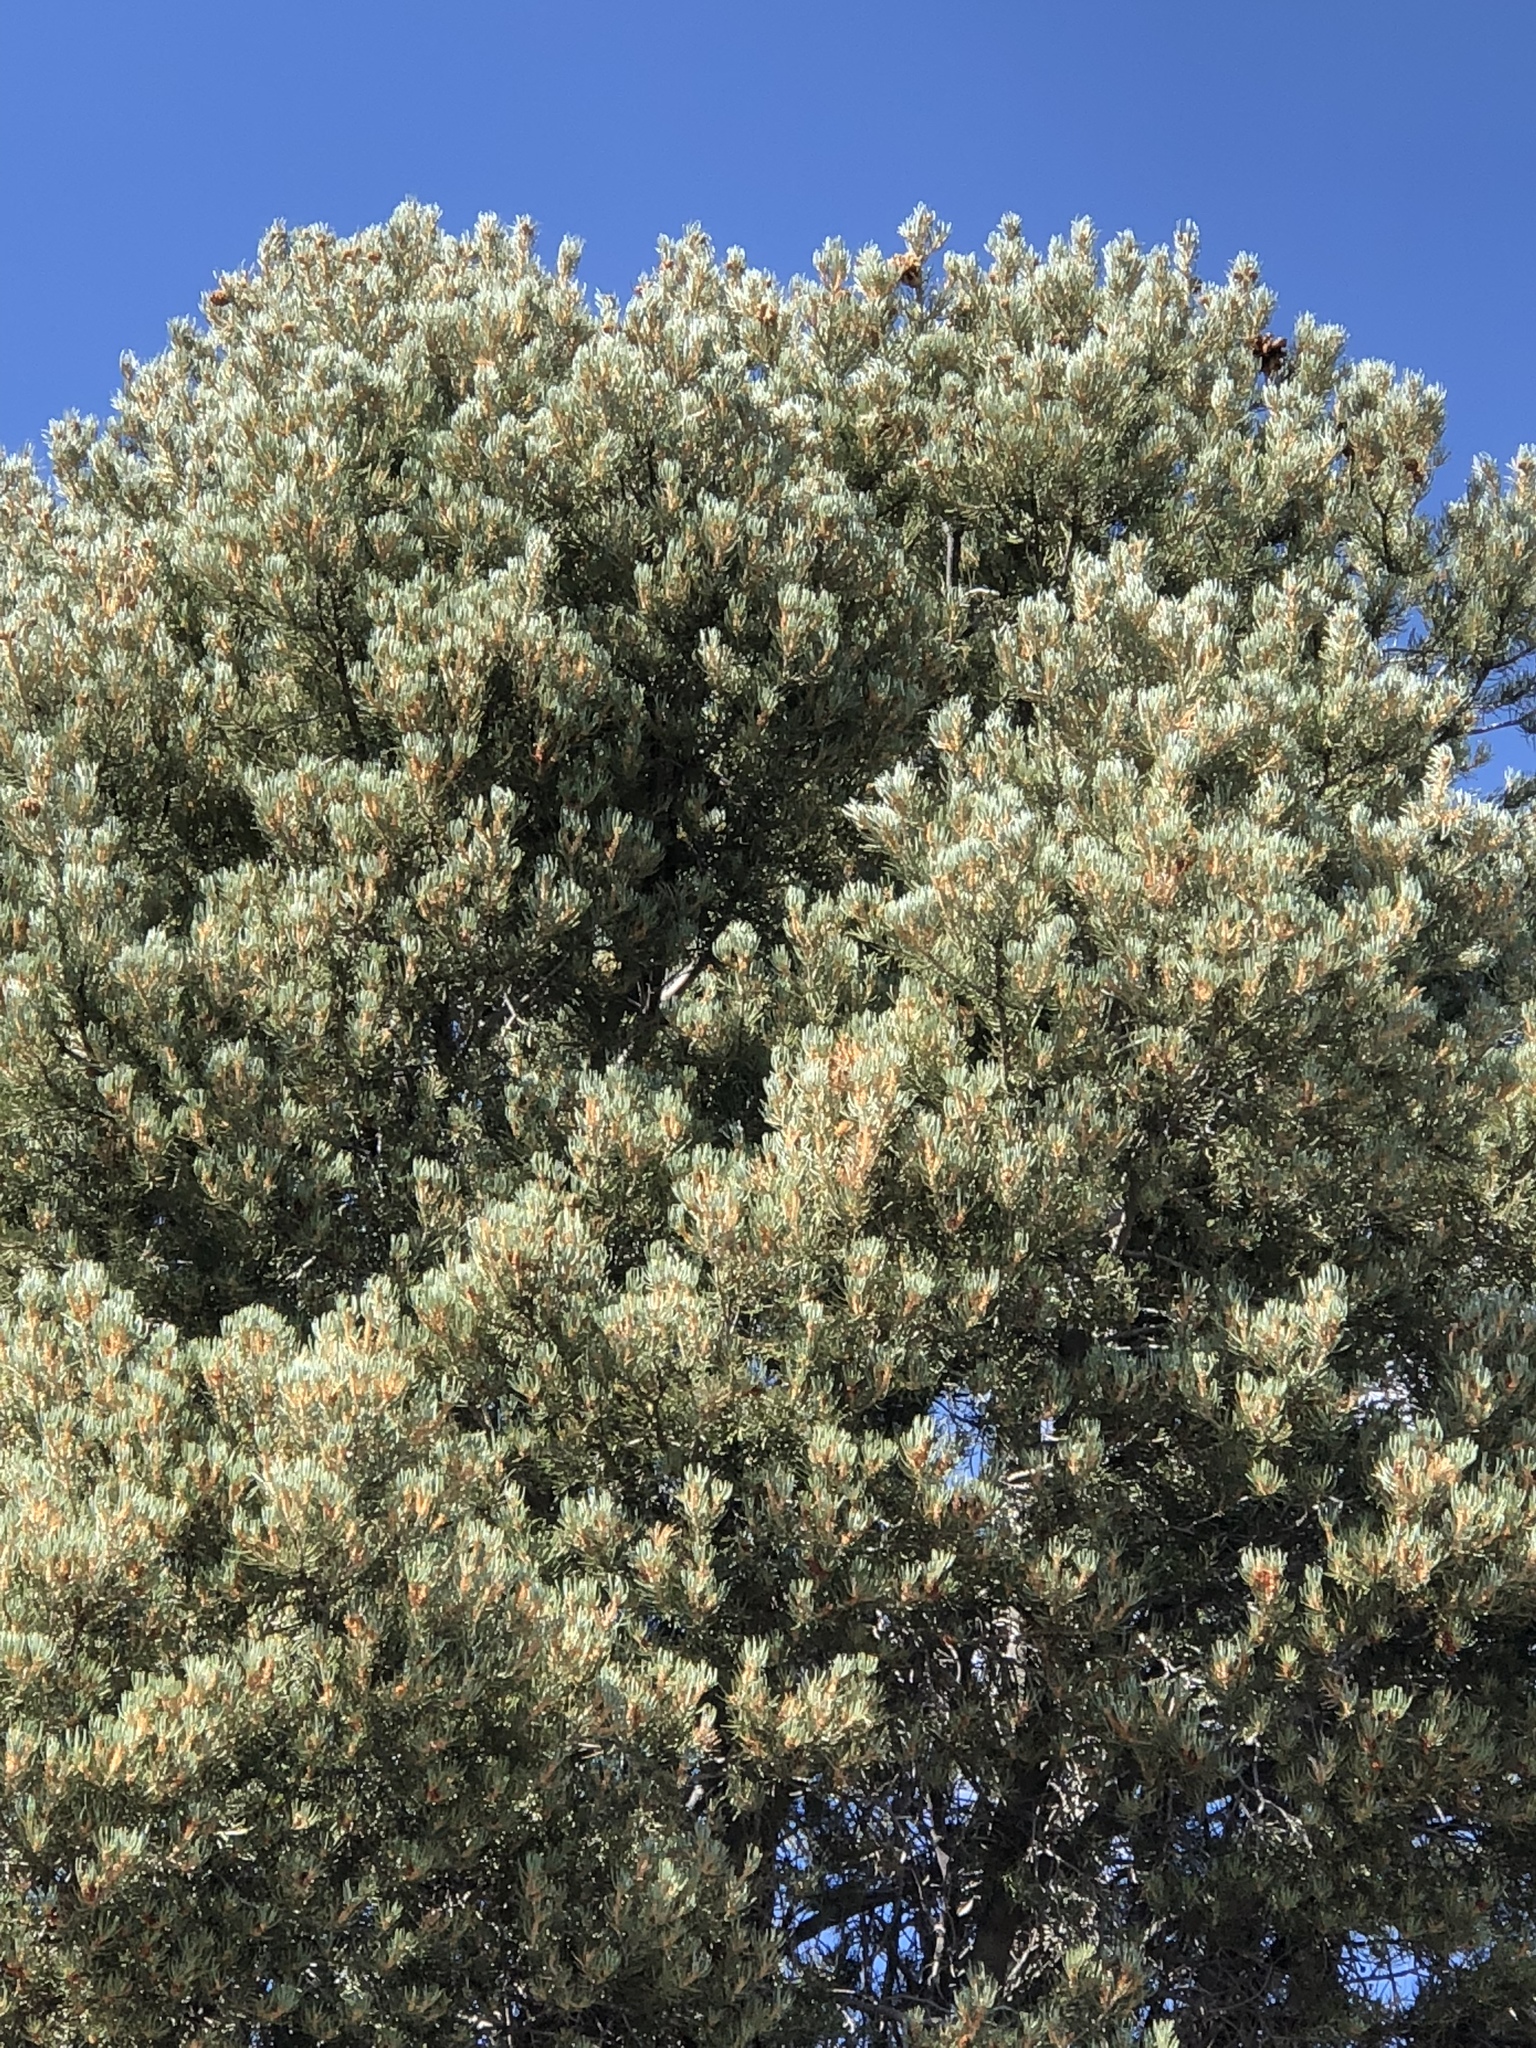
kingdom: Plantae
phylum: Tracheophyta
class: Pinopsida
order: Pinales
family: Pinaceae
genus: Pinus
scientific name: Pinus monophylla
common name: One-leaved nut pine
